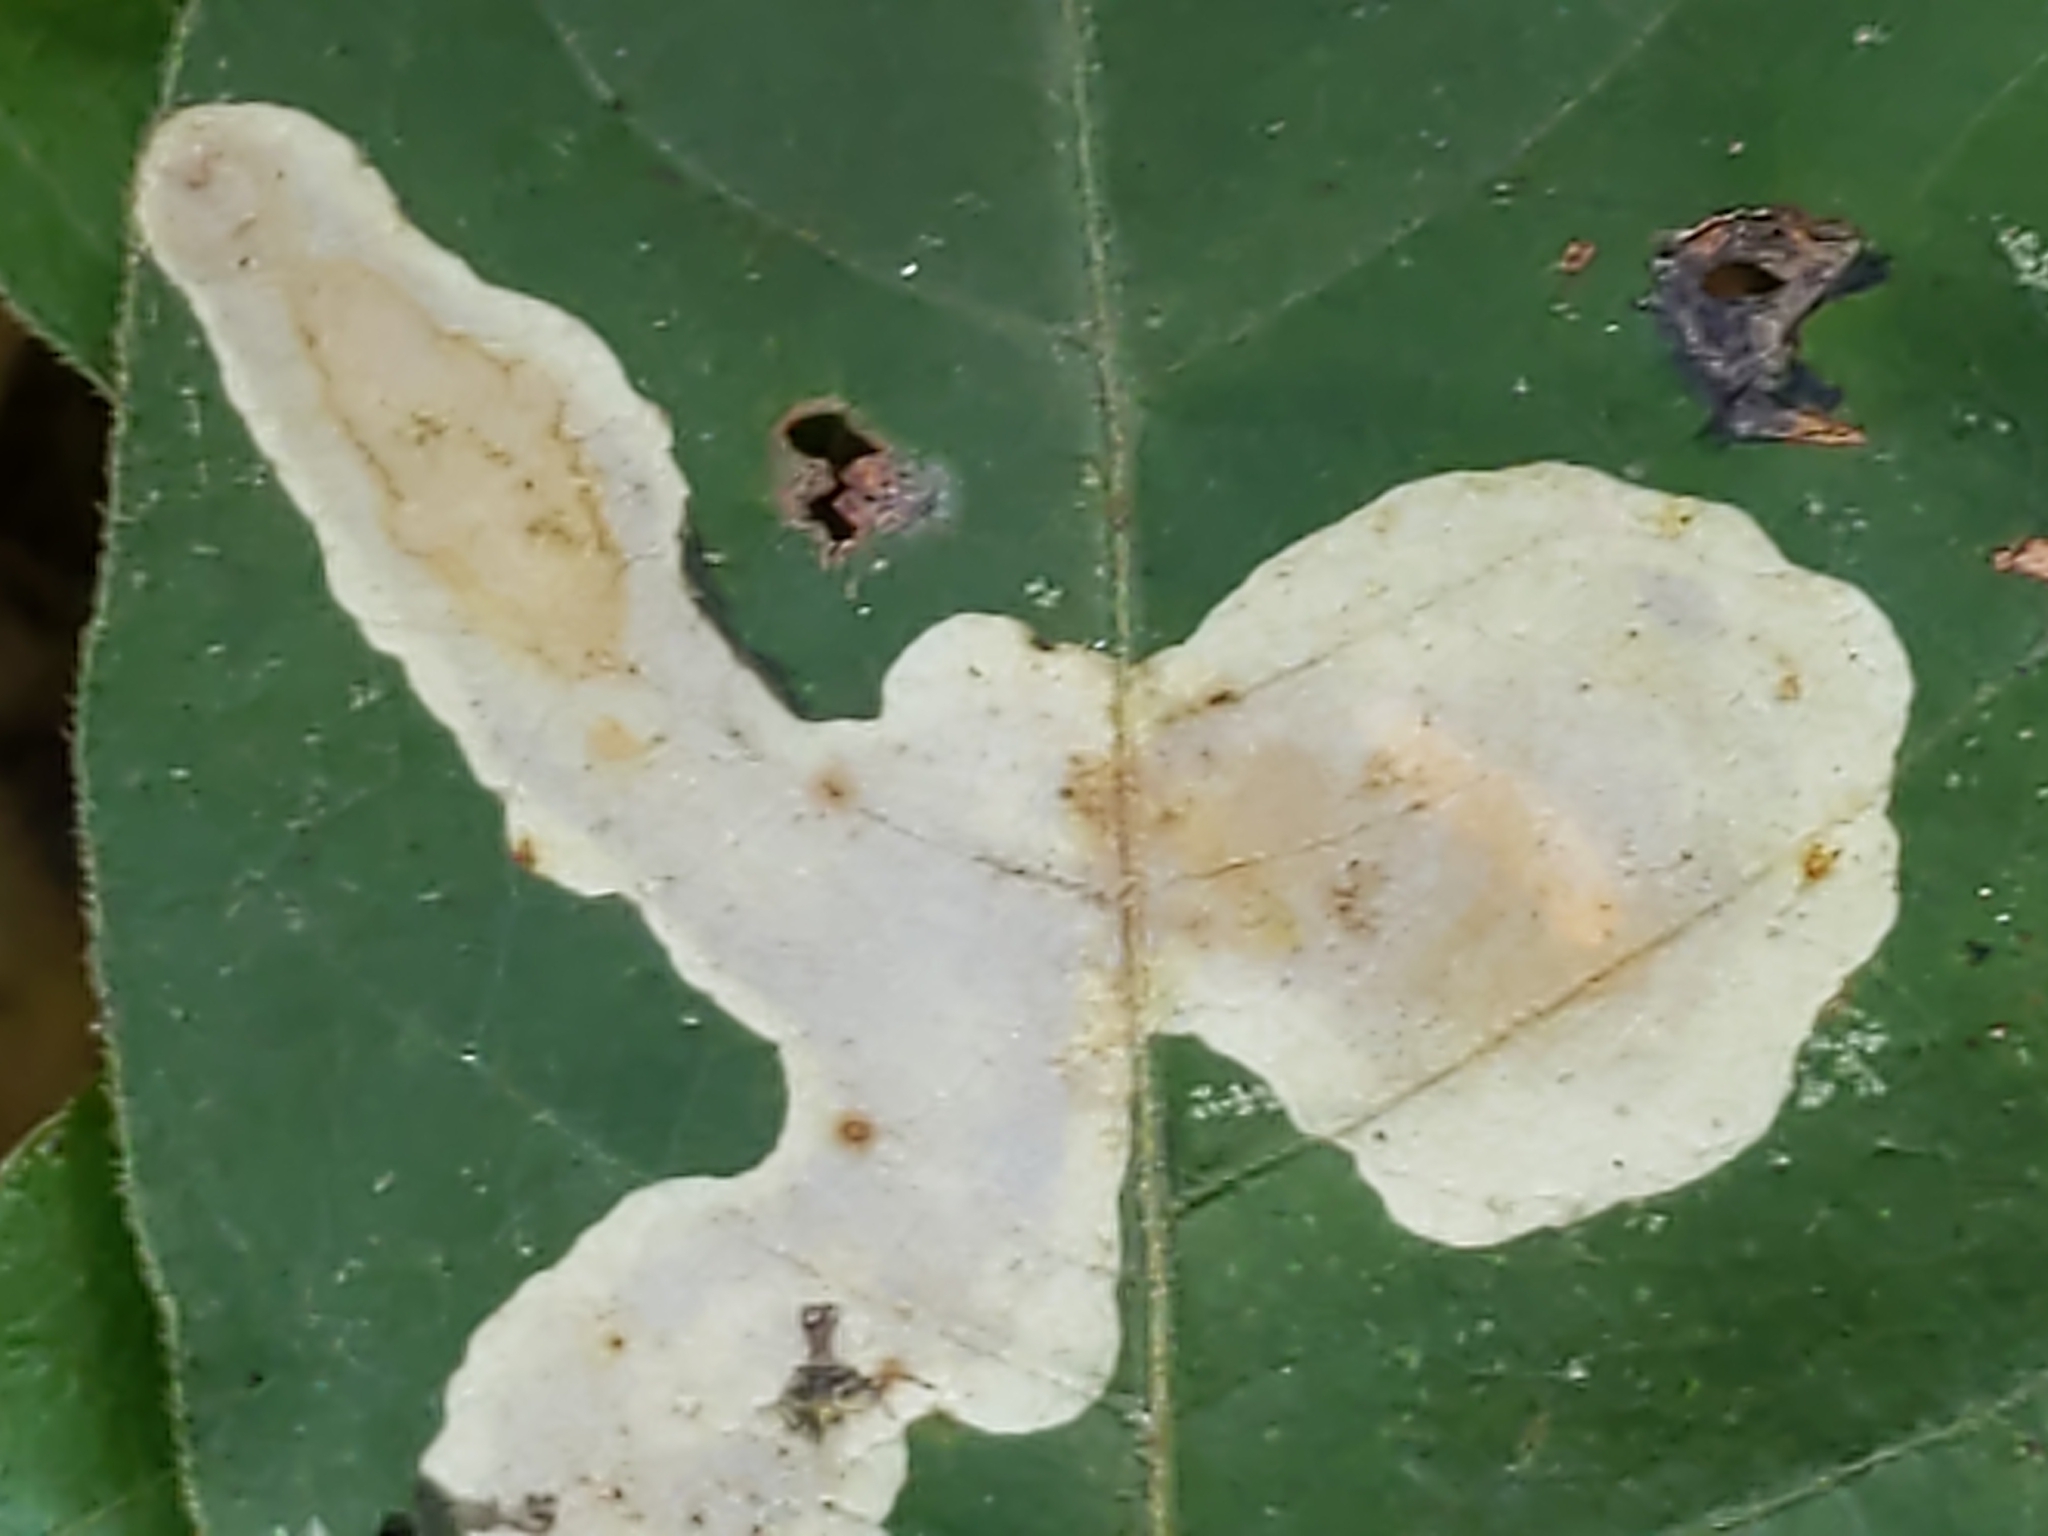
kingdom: Animalia
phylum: Arthropoda
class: Insecta
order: Lepidoptera
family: Gracillariidae
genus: Cameraria
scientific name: Cameraria guttifinitella
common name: Poison ivy leaf-miner moth
